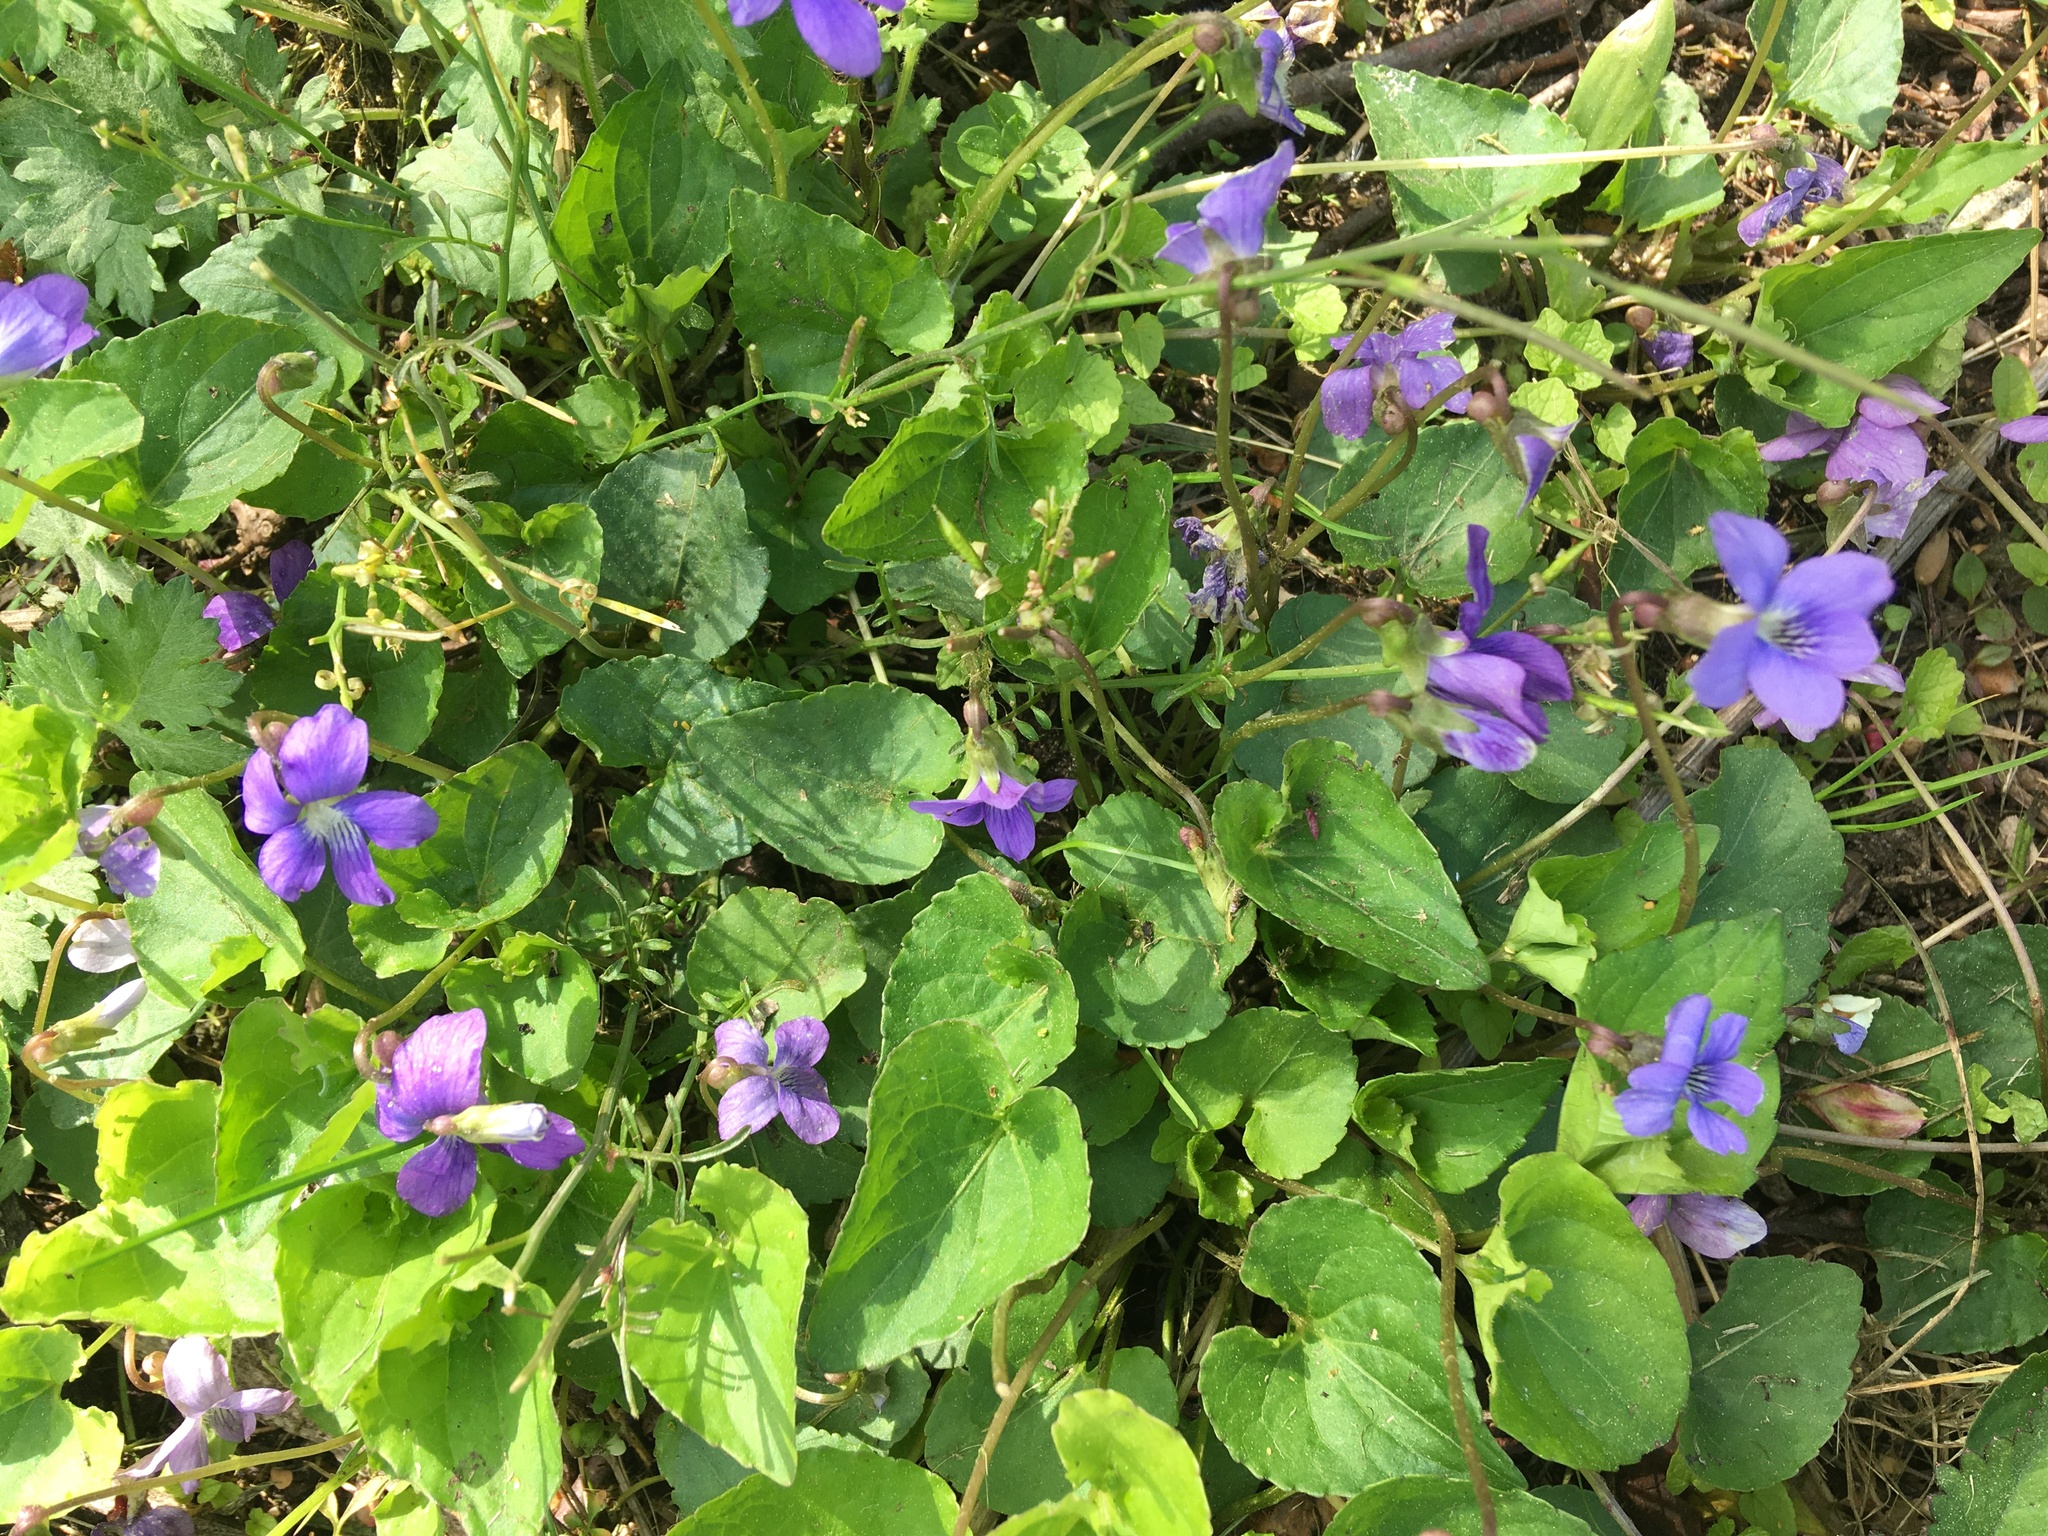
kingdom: Plantae
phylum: Tracheophyta
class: Magnoliopsida
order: Malpighiales
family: Violaceae
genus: Viola
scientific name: Viola sororia
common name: Dooryard violet
